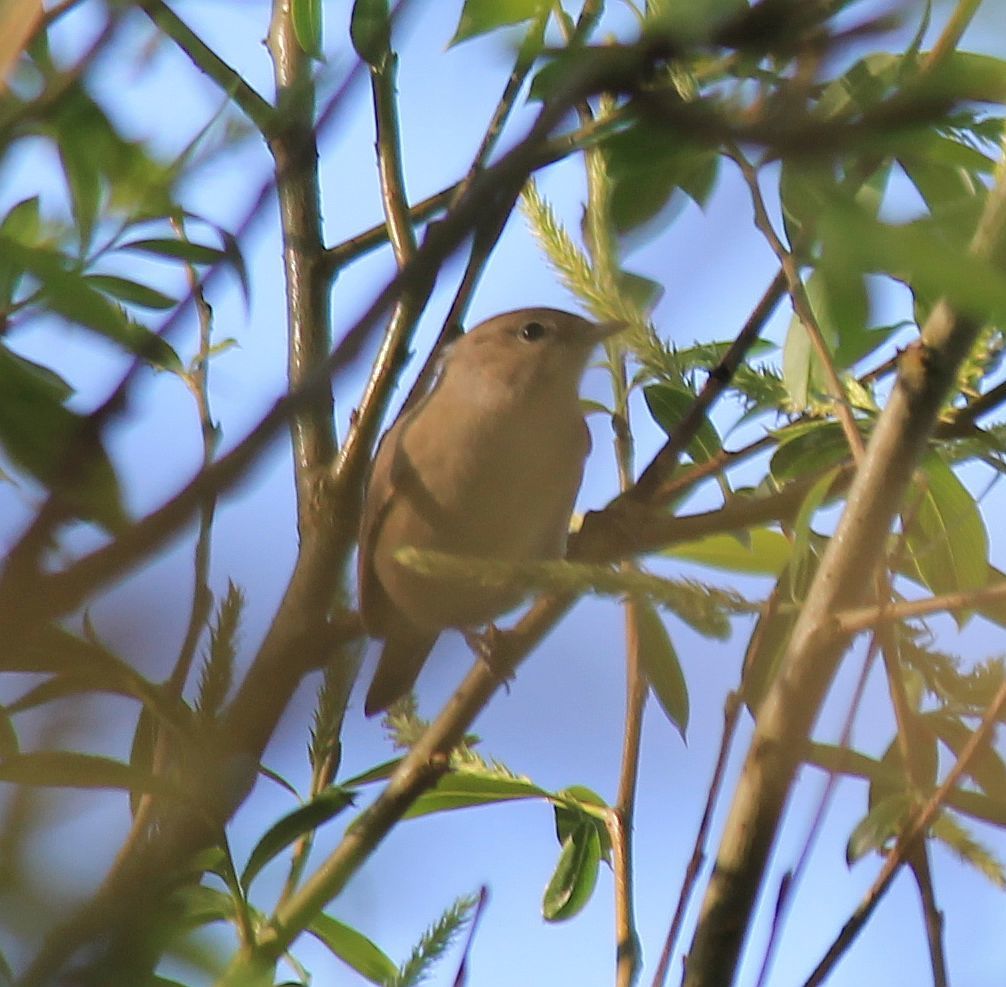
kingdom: Animalia
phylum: Chordata
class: Aves
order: Passeriformes
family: Sylviidae
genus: Sylvia
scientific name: Sylvia borin
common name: Garden warbler
